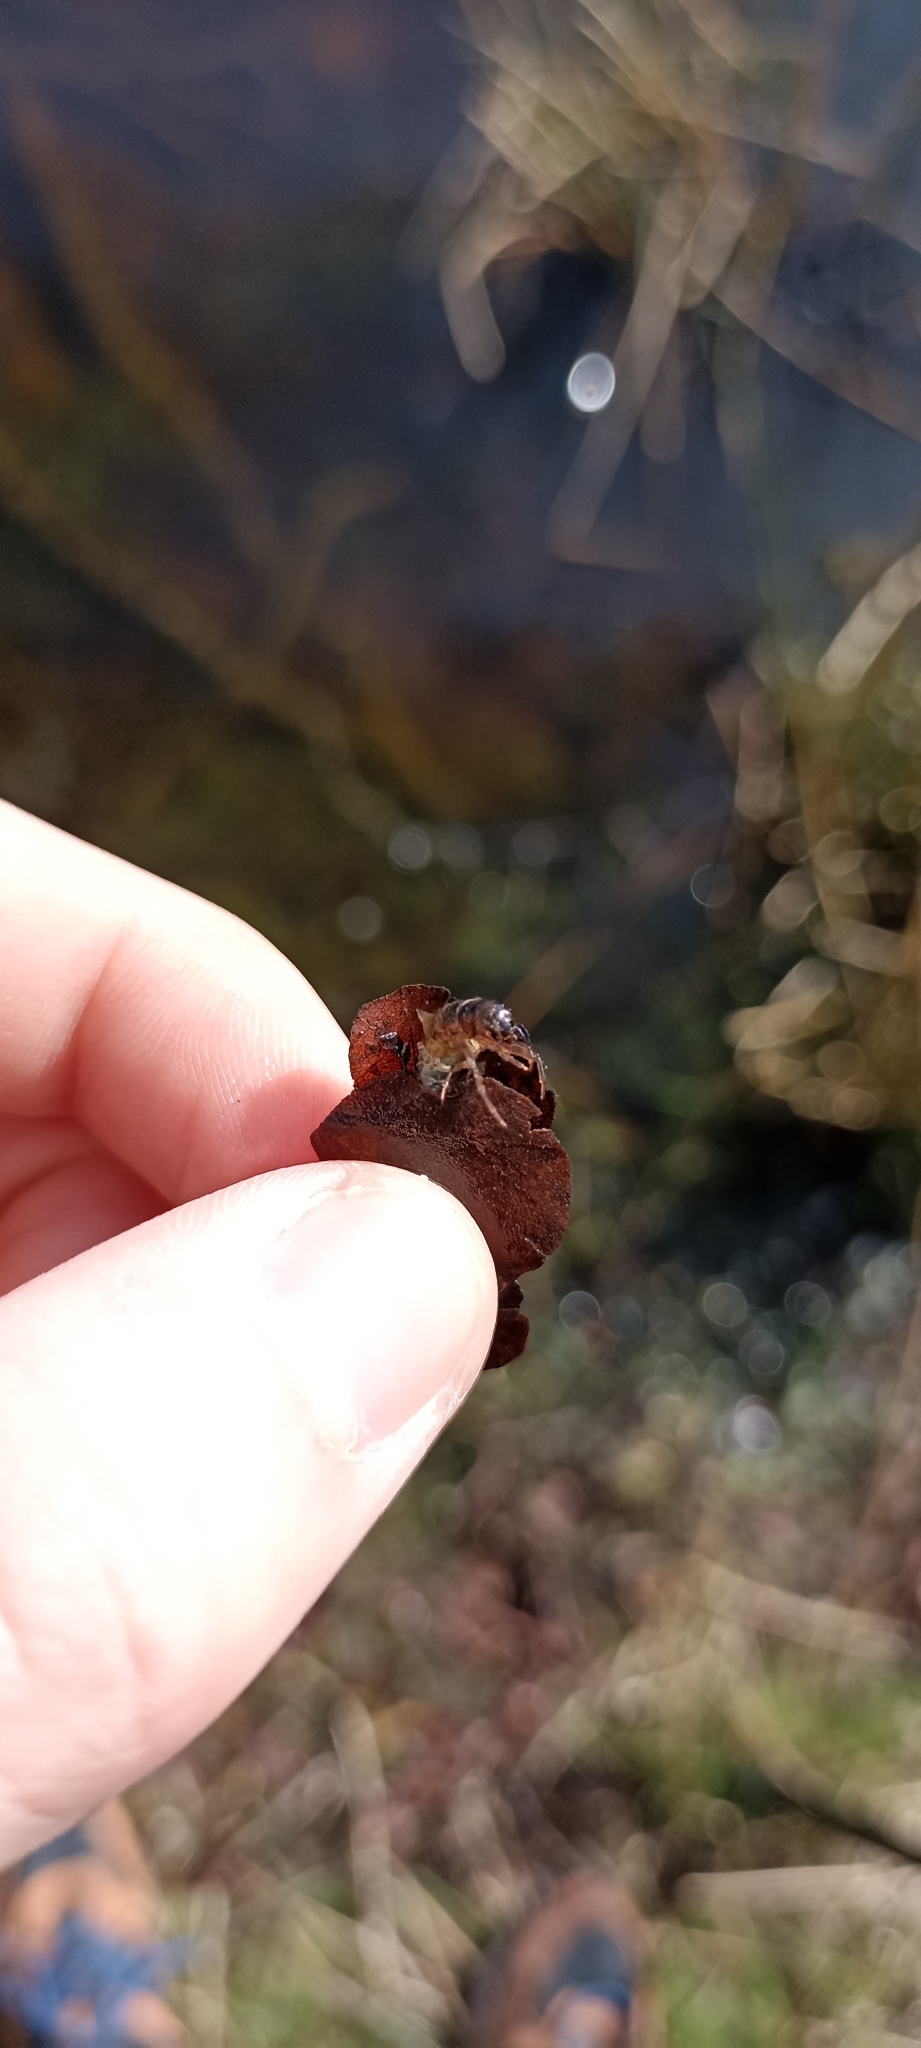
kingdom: Animalia
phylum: Arthropoda
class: Insecta
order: Trichoptera
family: Limnephilidae
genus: Glyphotaelius
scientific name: Glyphotaelius pellucidus
